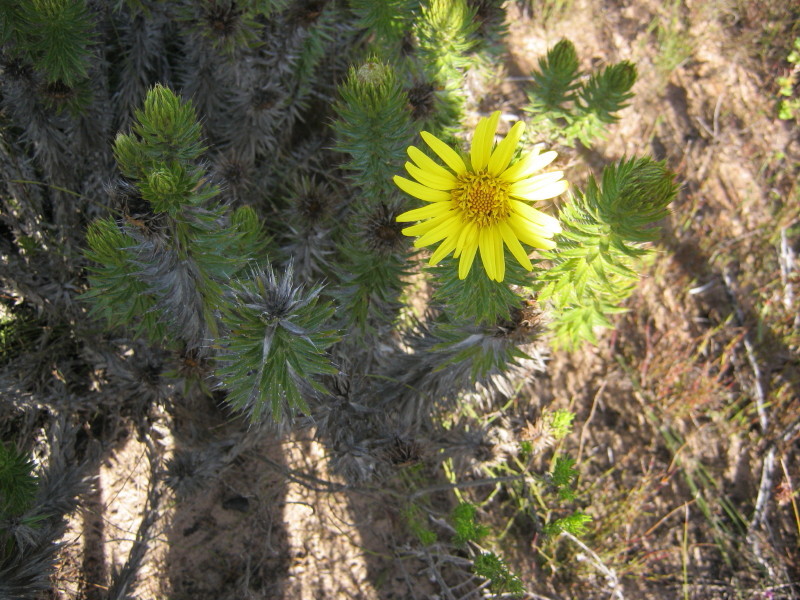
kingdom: Plantae
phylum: Tracheophyta
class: Magnoliopsida
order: Asterales
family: Asteraceae
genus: Cullumia
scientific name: Cullumia carlinoides
